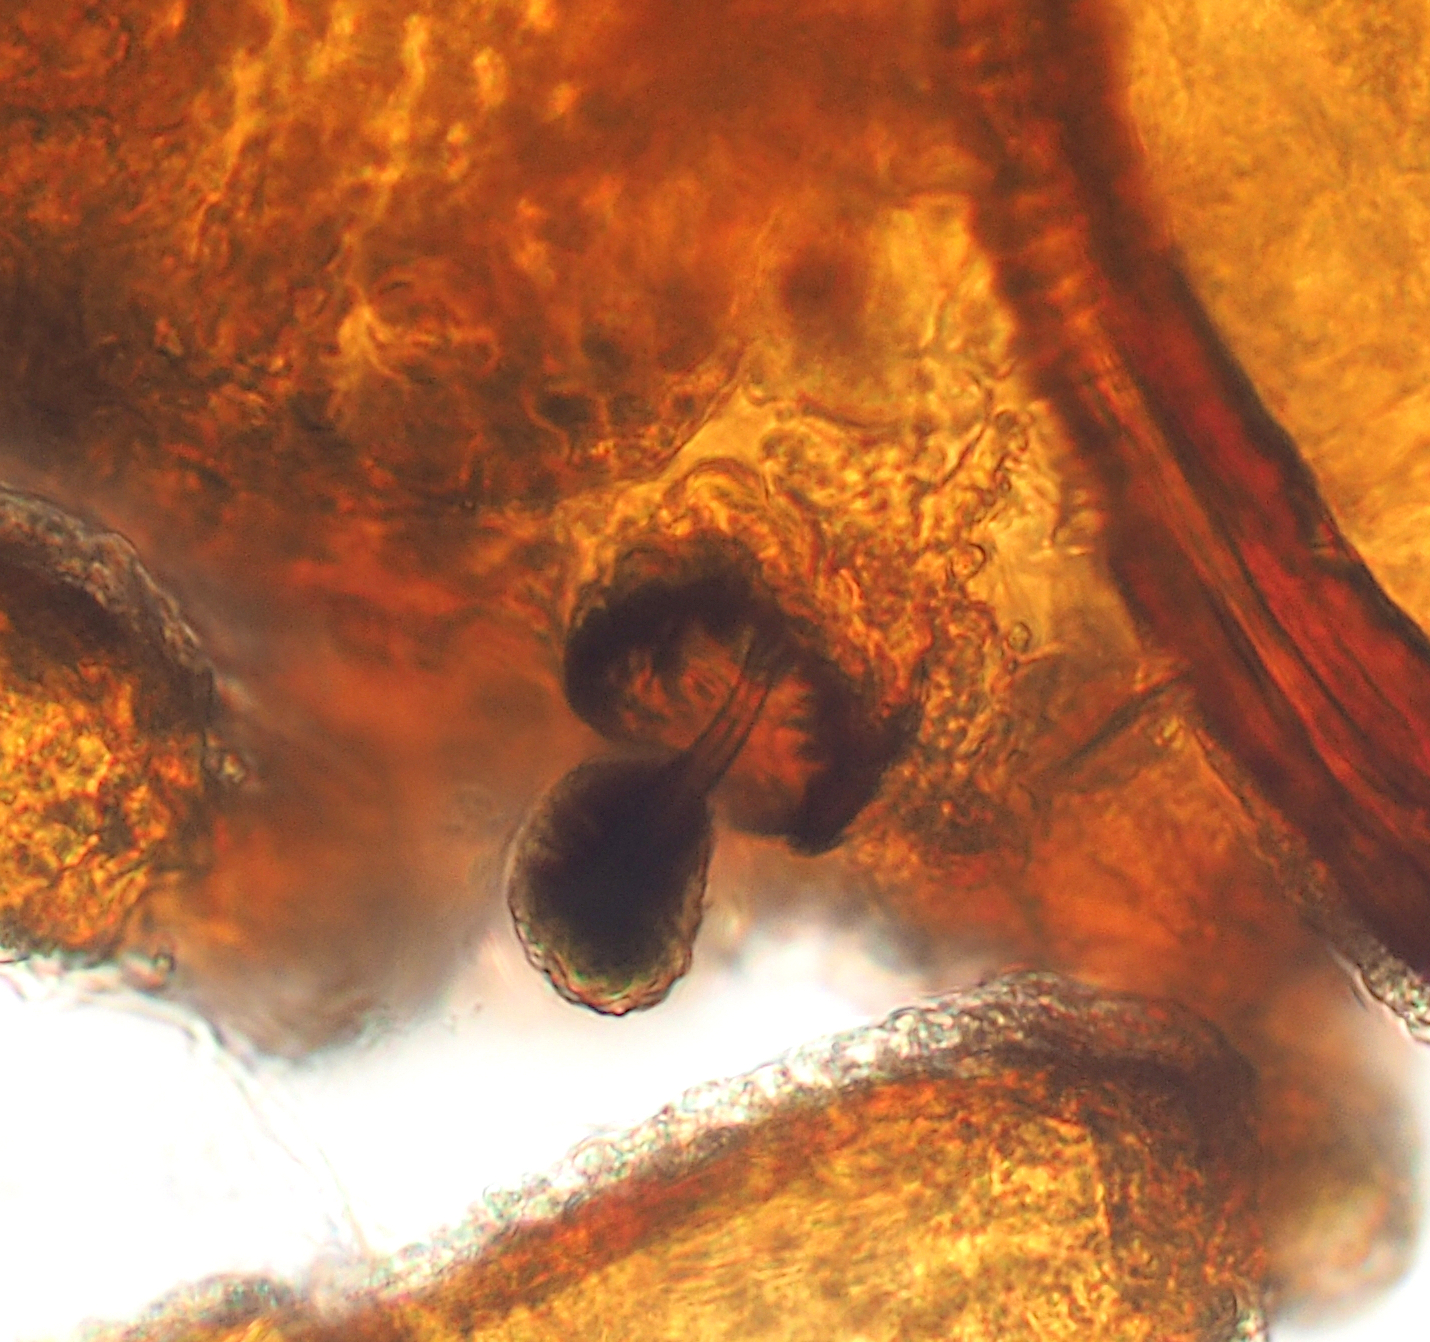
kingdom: Animalia
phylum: Arthropoda
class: Arachnida
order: Sarcoptiformes
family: Licnodamaeidae
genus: Pedrocortesella
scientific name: Pedrocortesella
